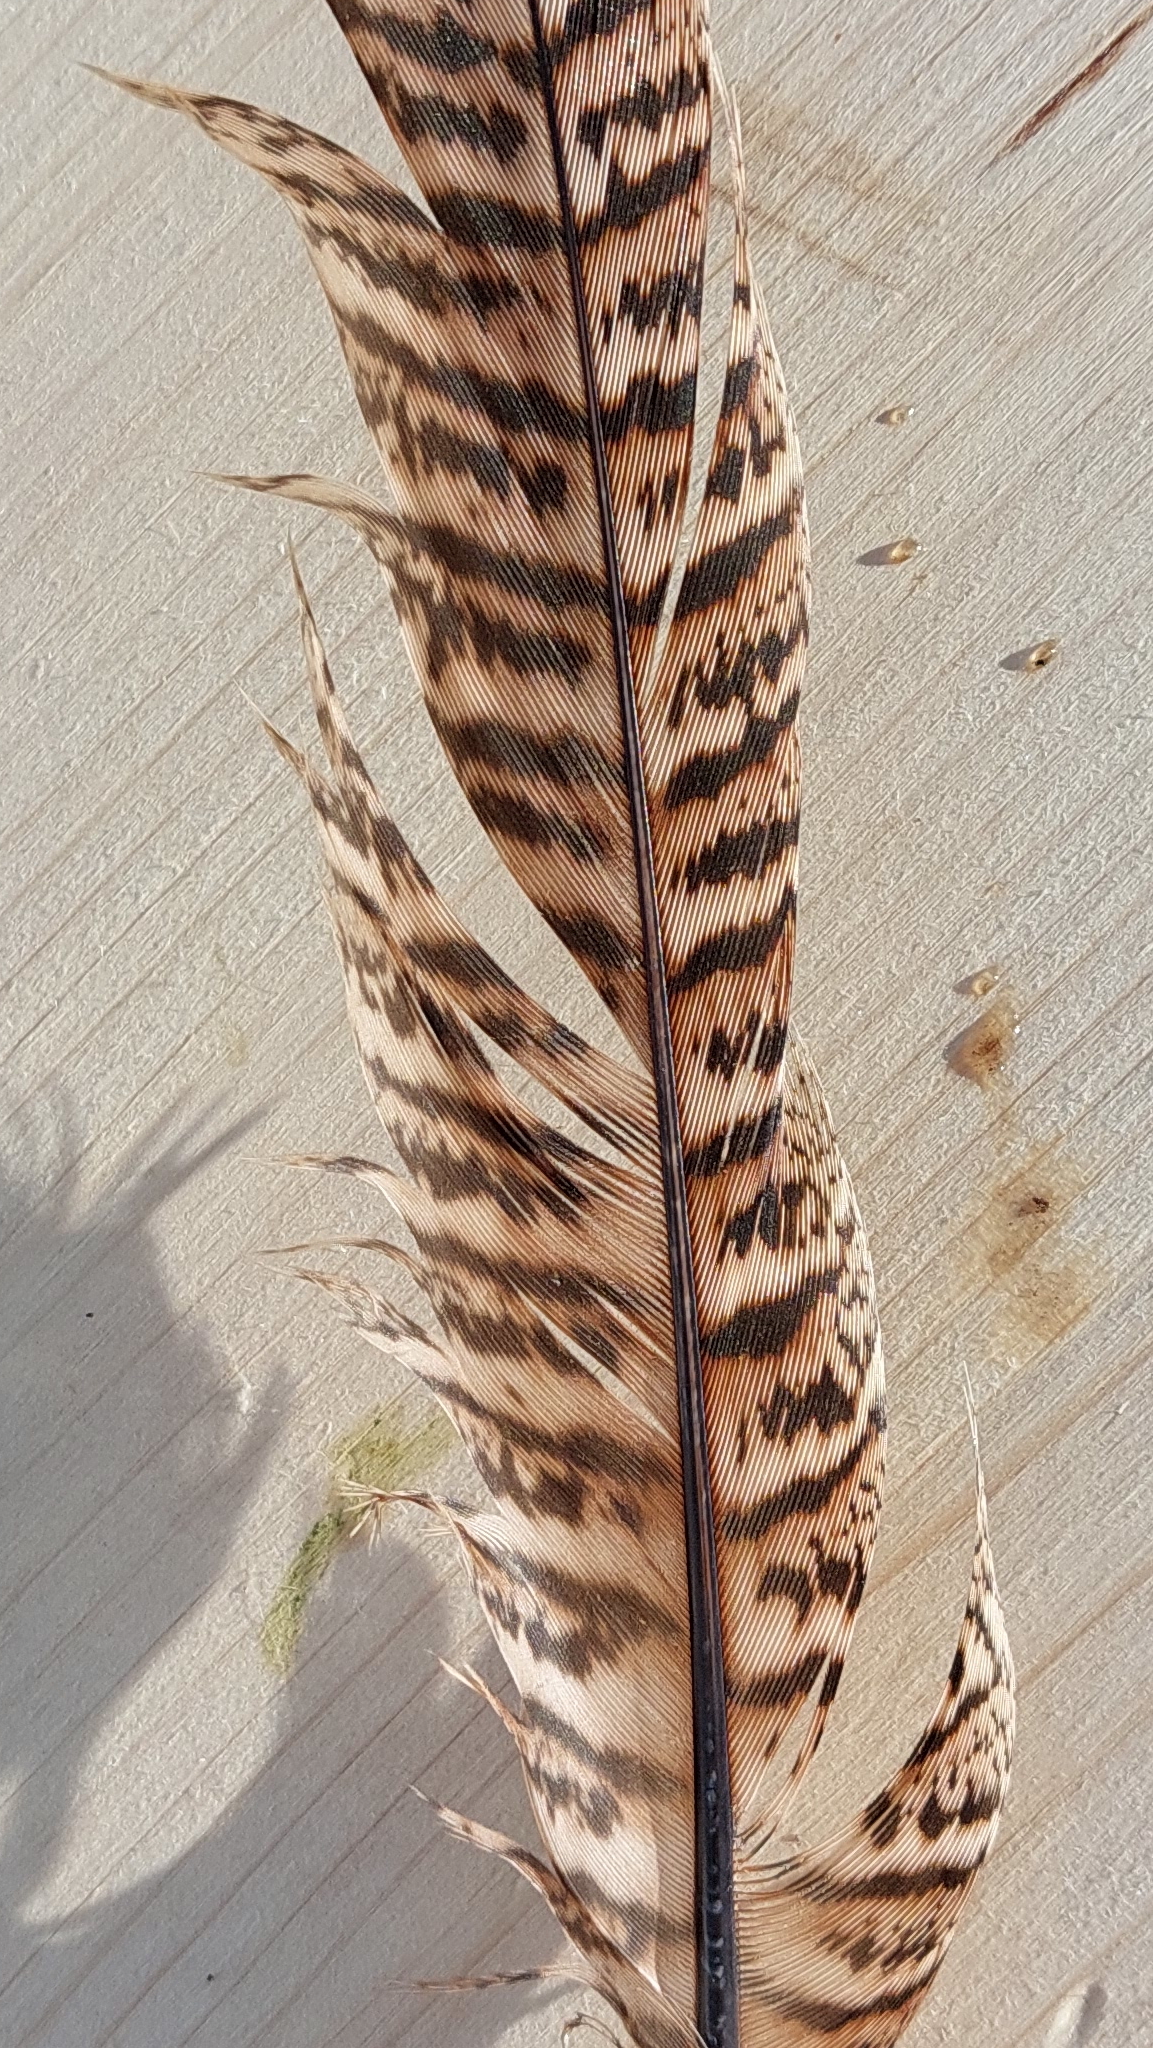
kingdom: Animalia
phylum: Chordata
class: Aves
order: Galliformes
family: Phasianidae
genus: Phasianus
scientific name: Phasianus colchicus
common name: Common pheasant
